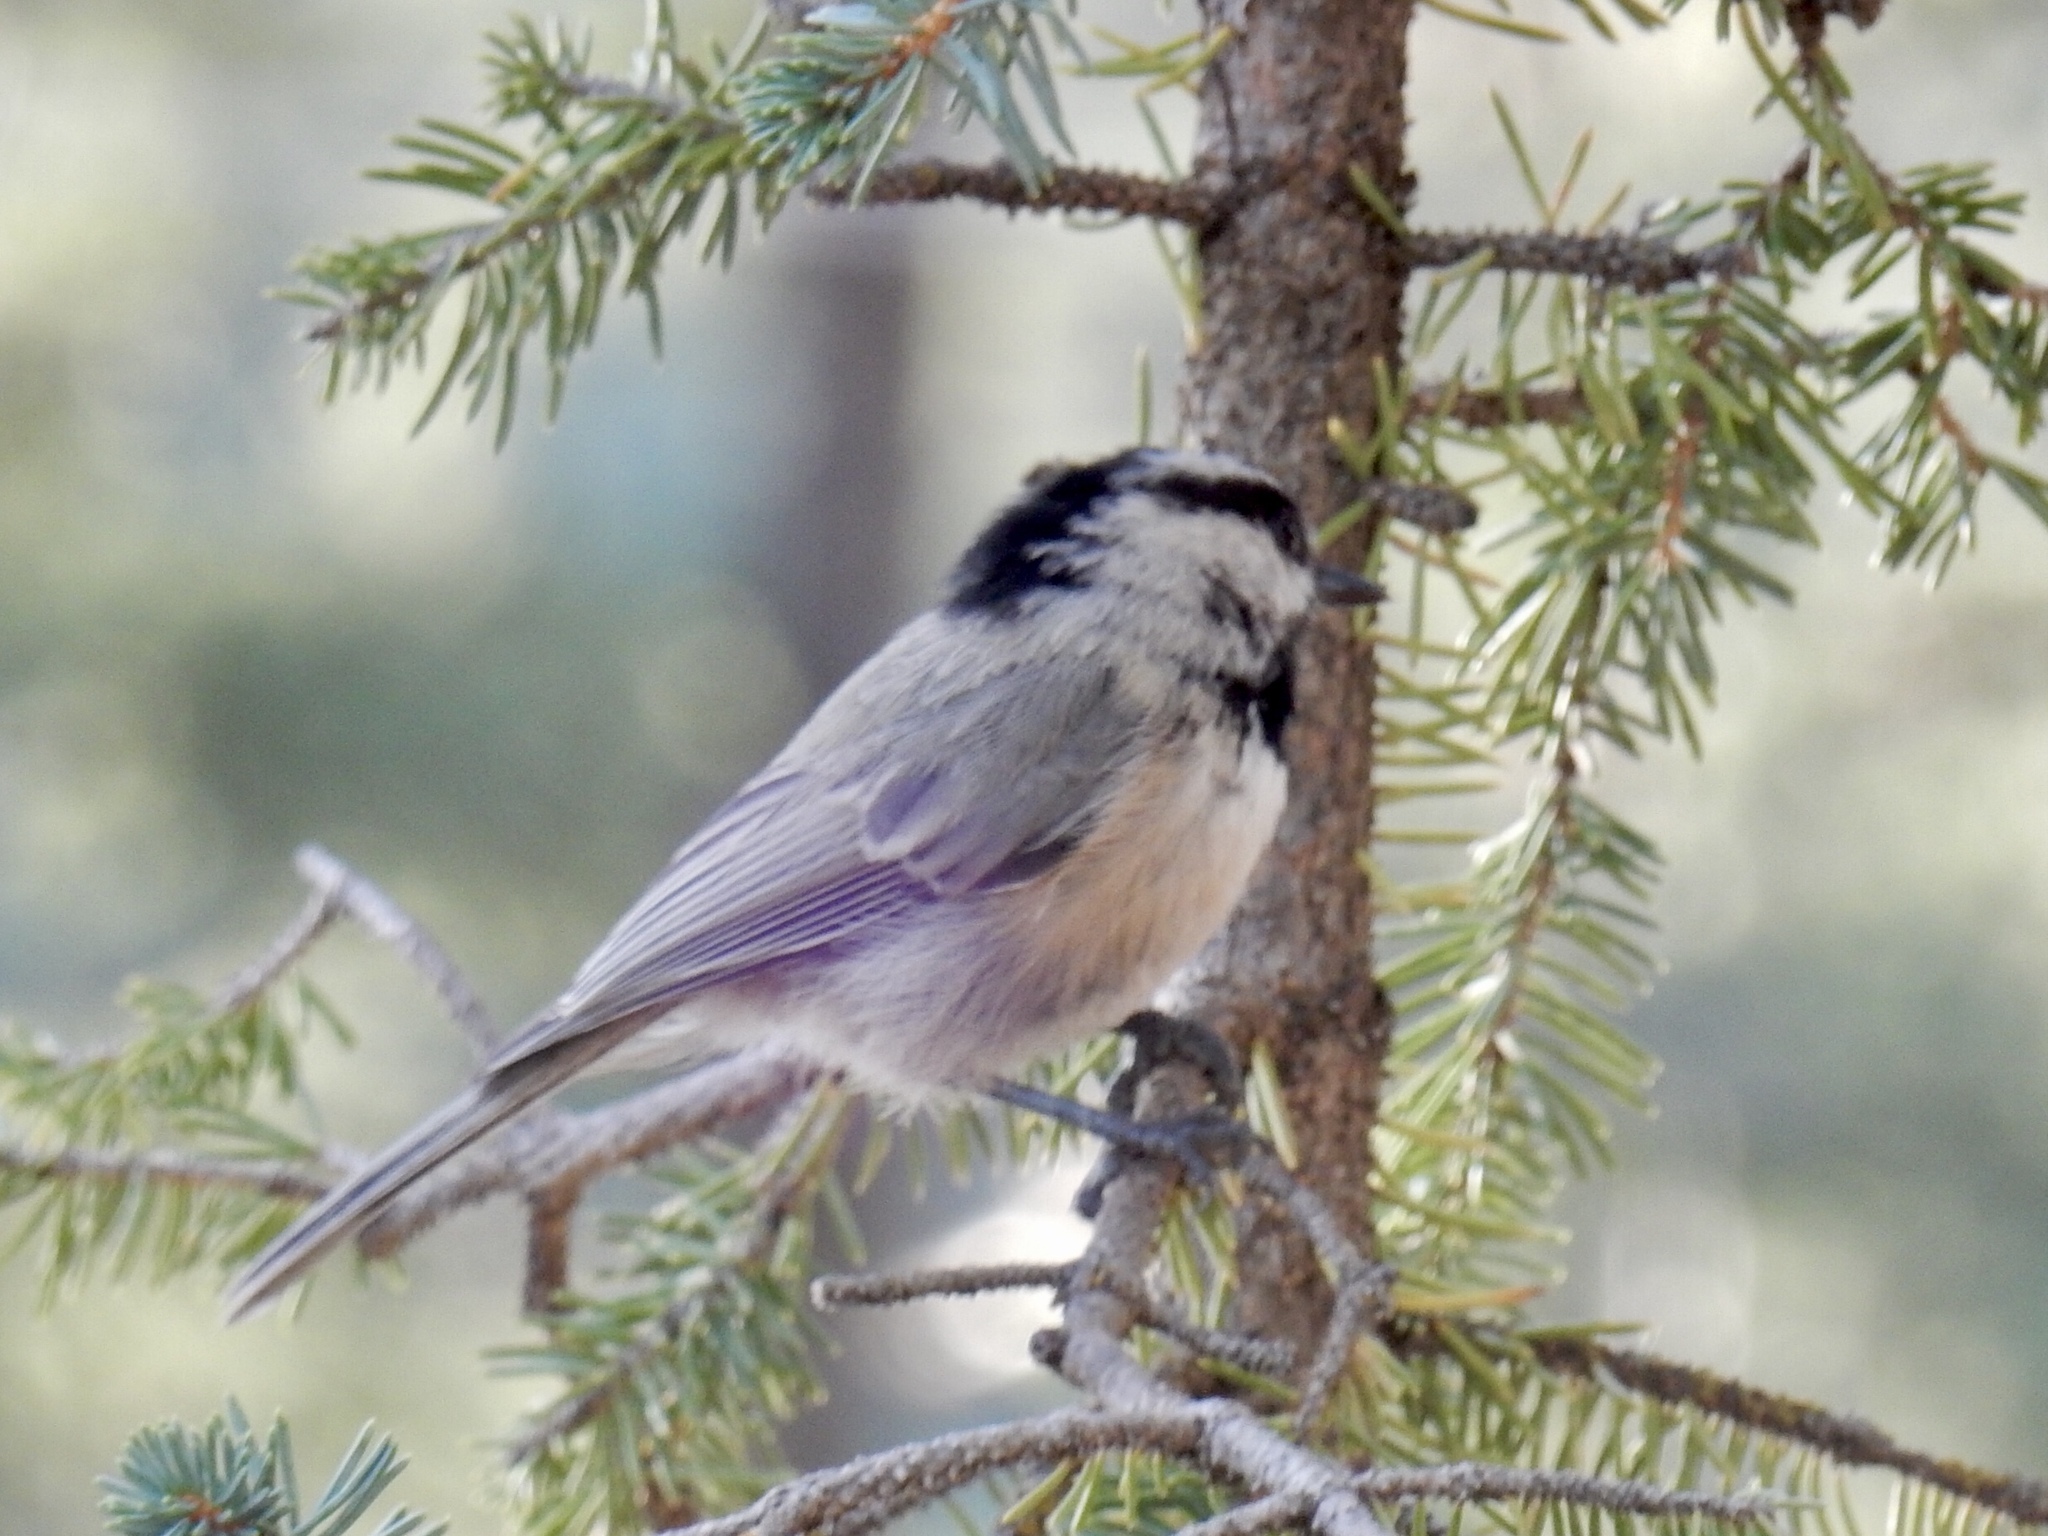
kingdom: Animalia
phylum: Chordata
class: Aves
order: Passeriformes
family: Paridae
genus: Poecile
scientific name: Poecile gambeli
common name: Mountain chickadee
